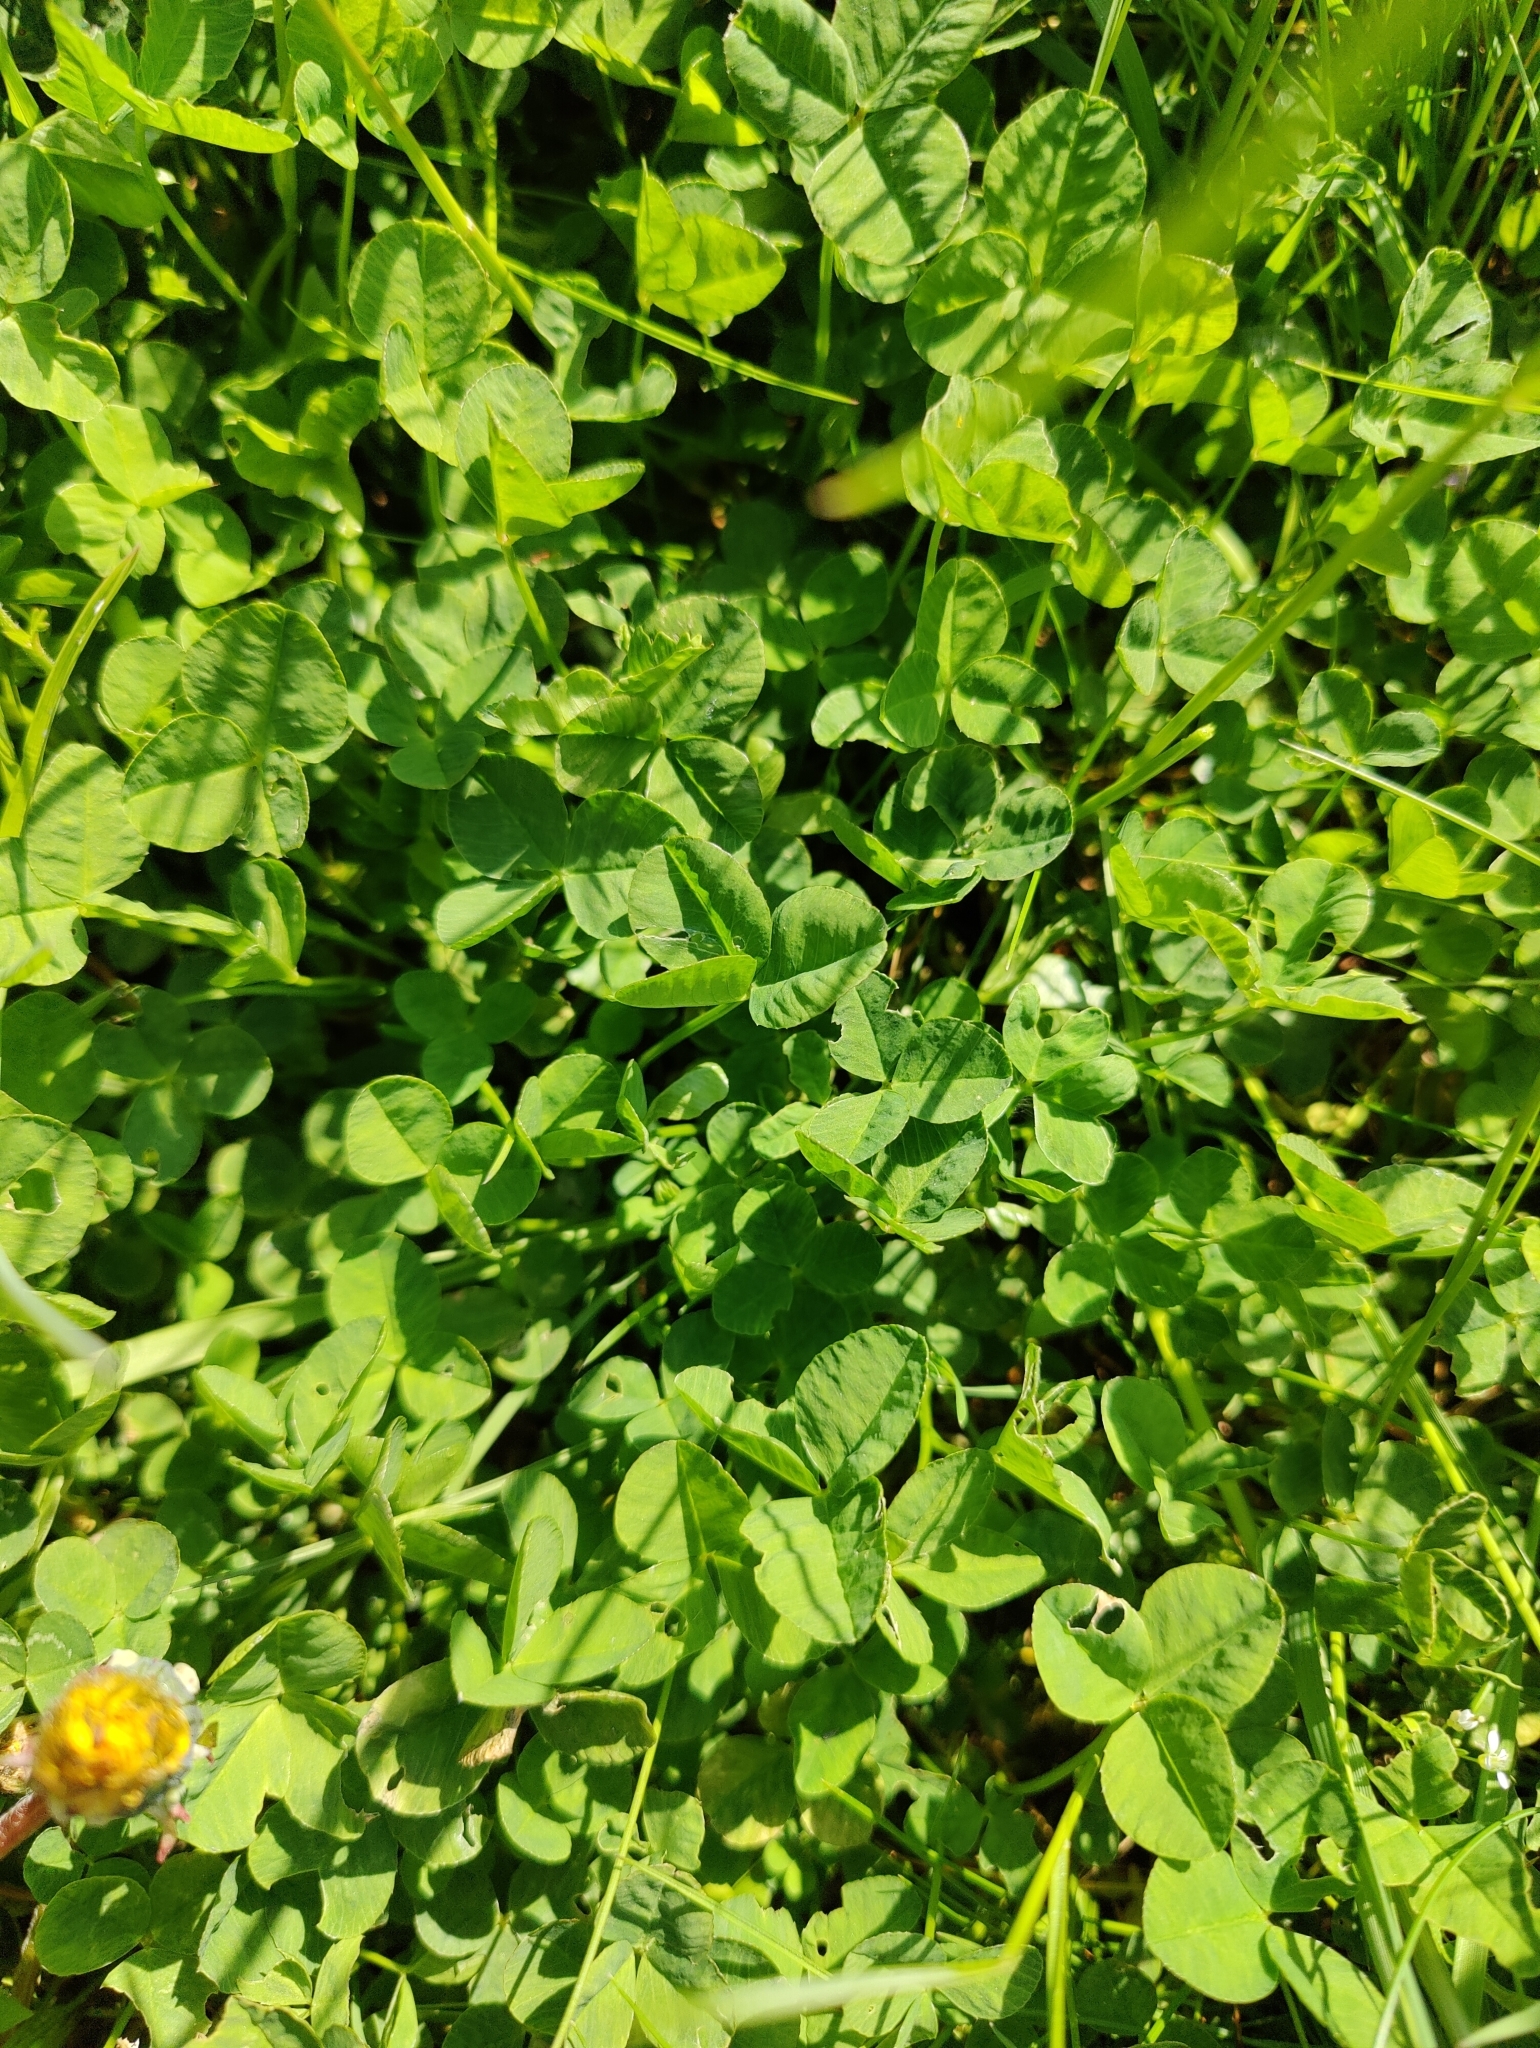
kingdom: Plantae
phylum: Tracheophyta
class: Magnoliopsida
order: Fabales
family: Fabaceae
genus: Trifolium
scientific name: Trifolium repens
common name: White clover
